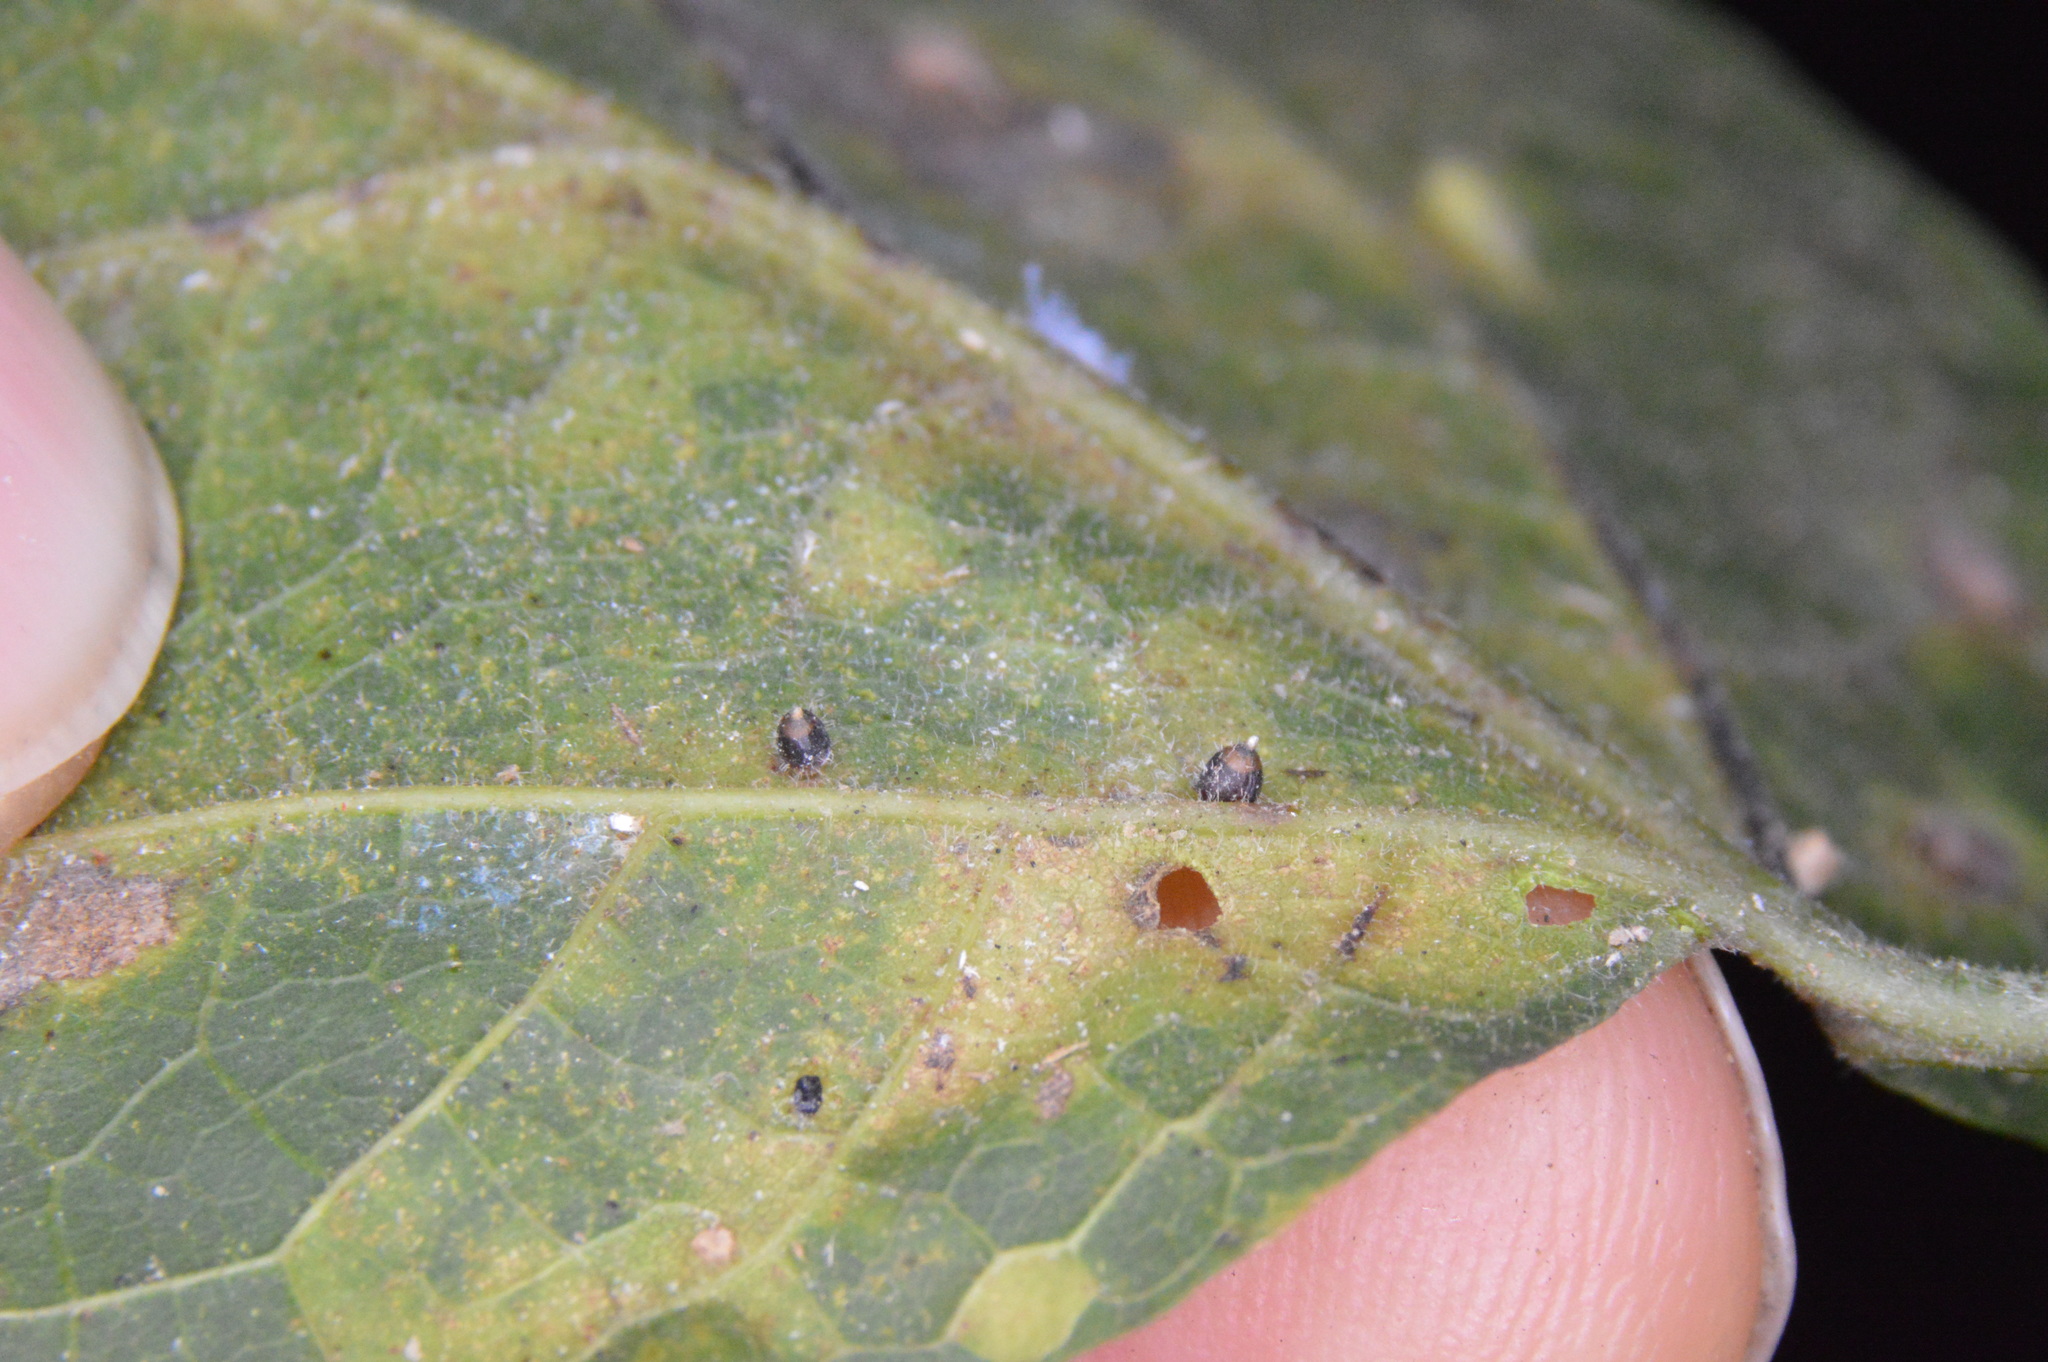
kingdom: Animalia
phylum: Arthropoda
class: Insecta
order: Diptera
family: Cecidomyiidae
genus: Celticecis
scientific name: Celticecis cupiformis
